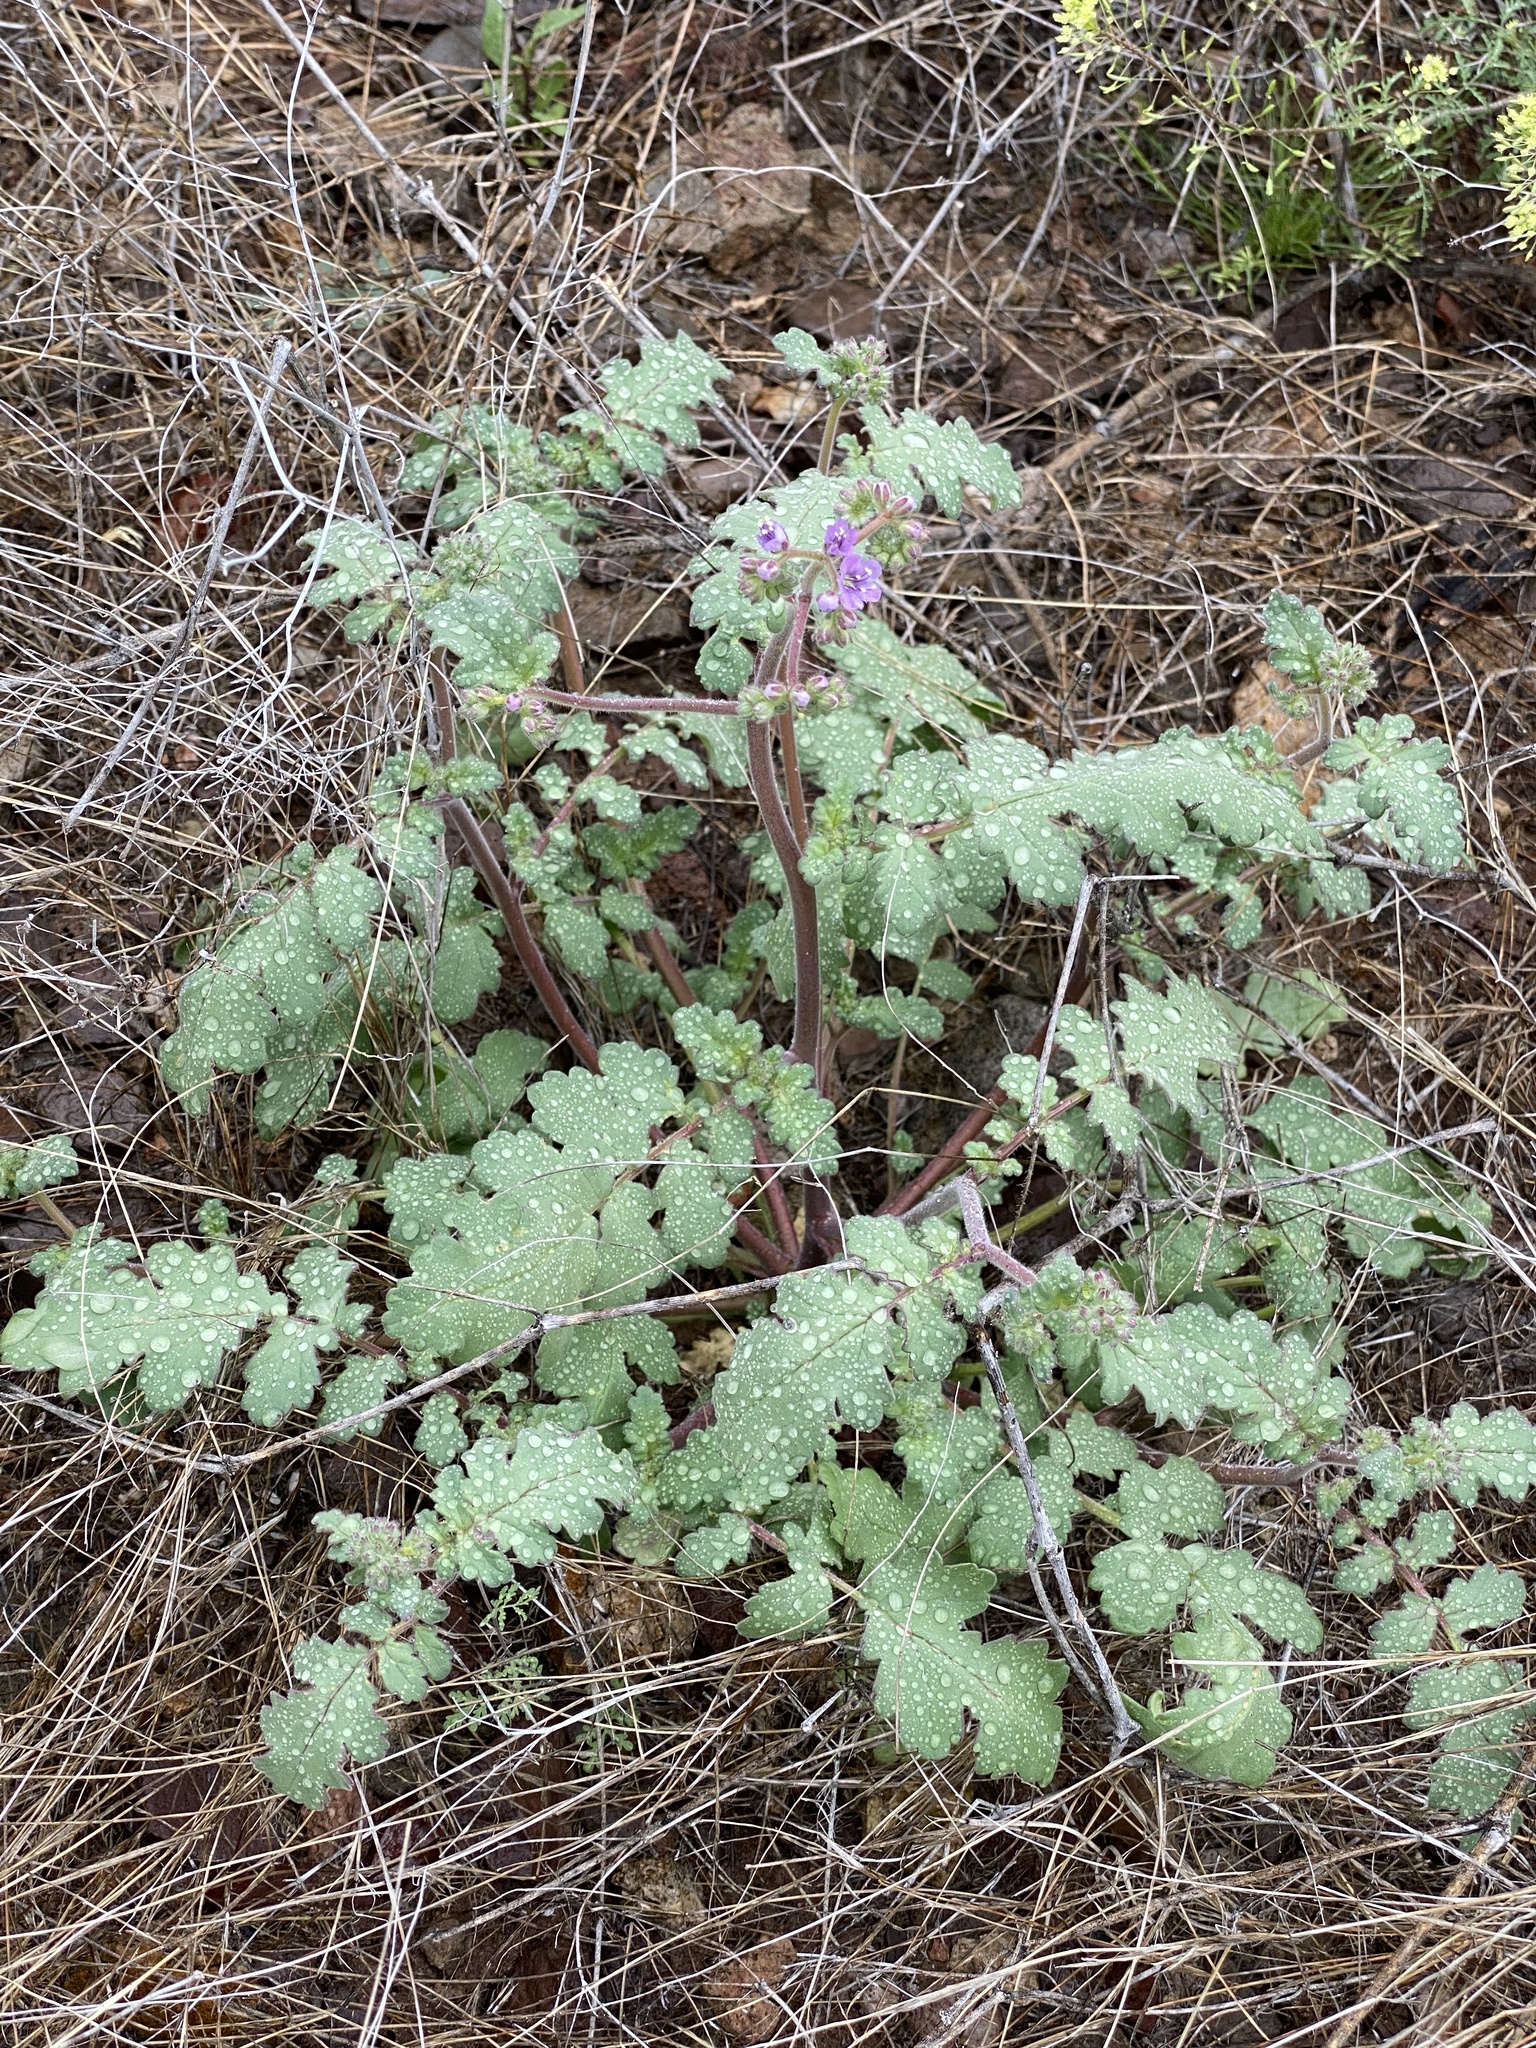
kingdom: Plantae
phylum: Tracheophyta
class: Magnoliopsida
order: Boraginales
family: Hydrophyllaceae
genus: Phacelia
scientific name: Phacelia crenulata
